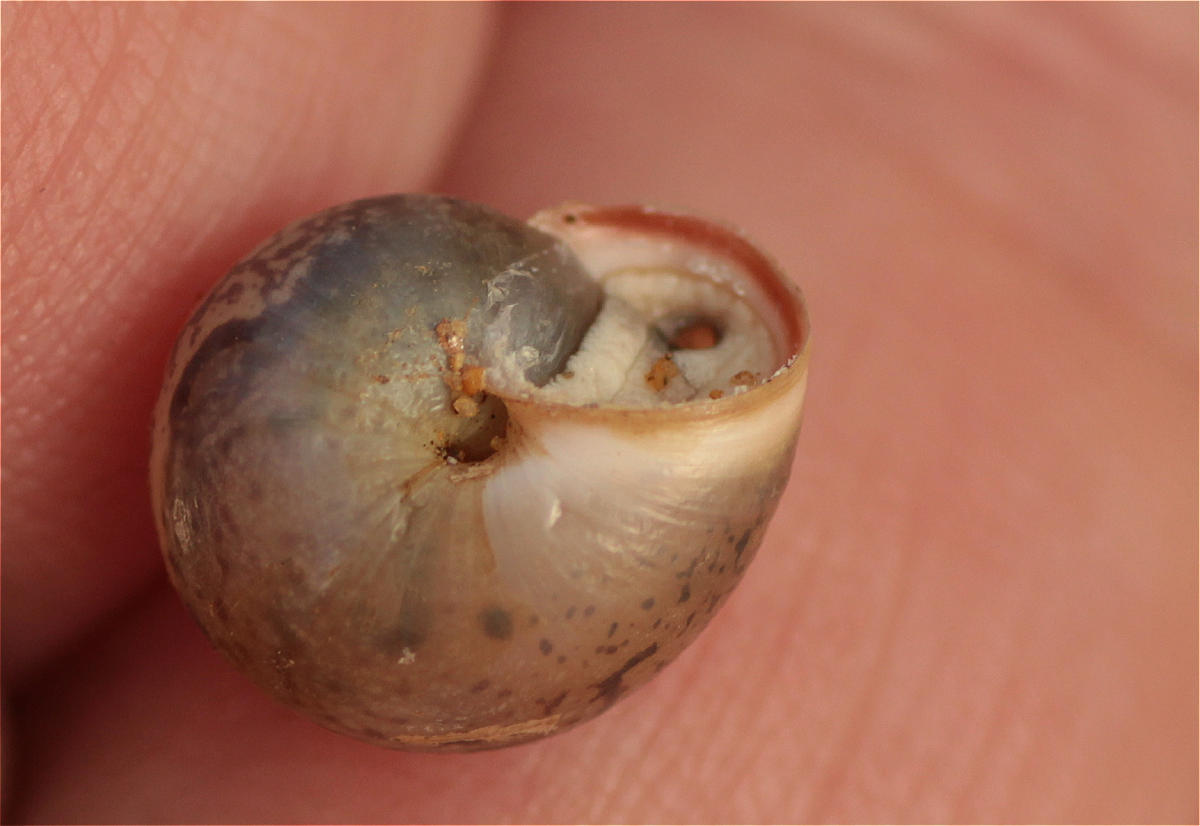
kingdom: Animalia
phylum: Mollusca
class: Gastropoda
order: Stylommatophora
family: Hygromiidae
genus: Monacha
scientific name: Monacha obstructa
